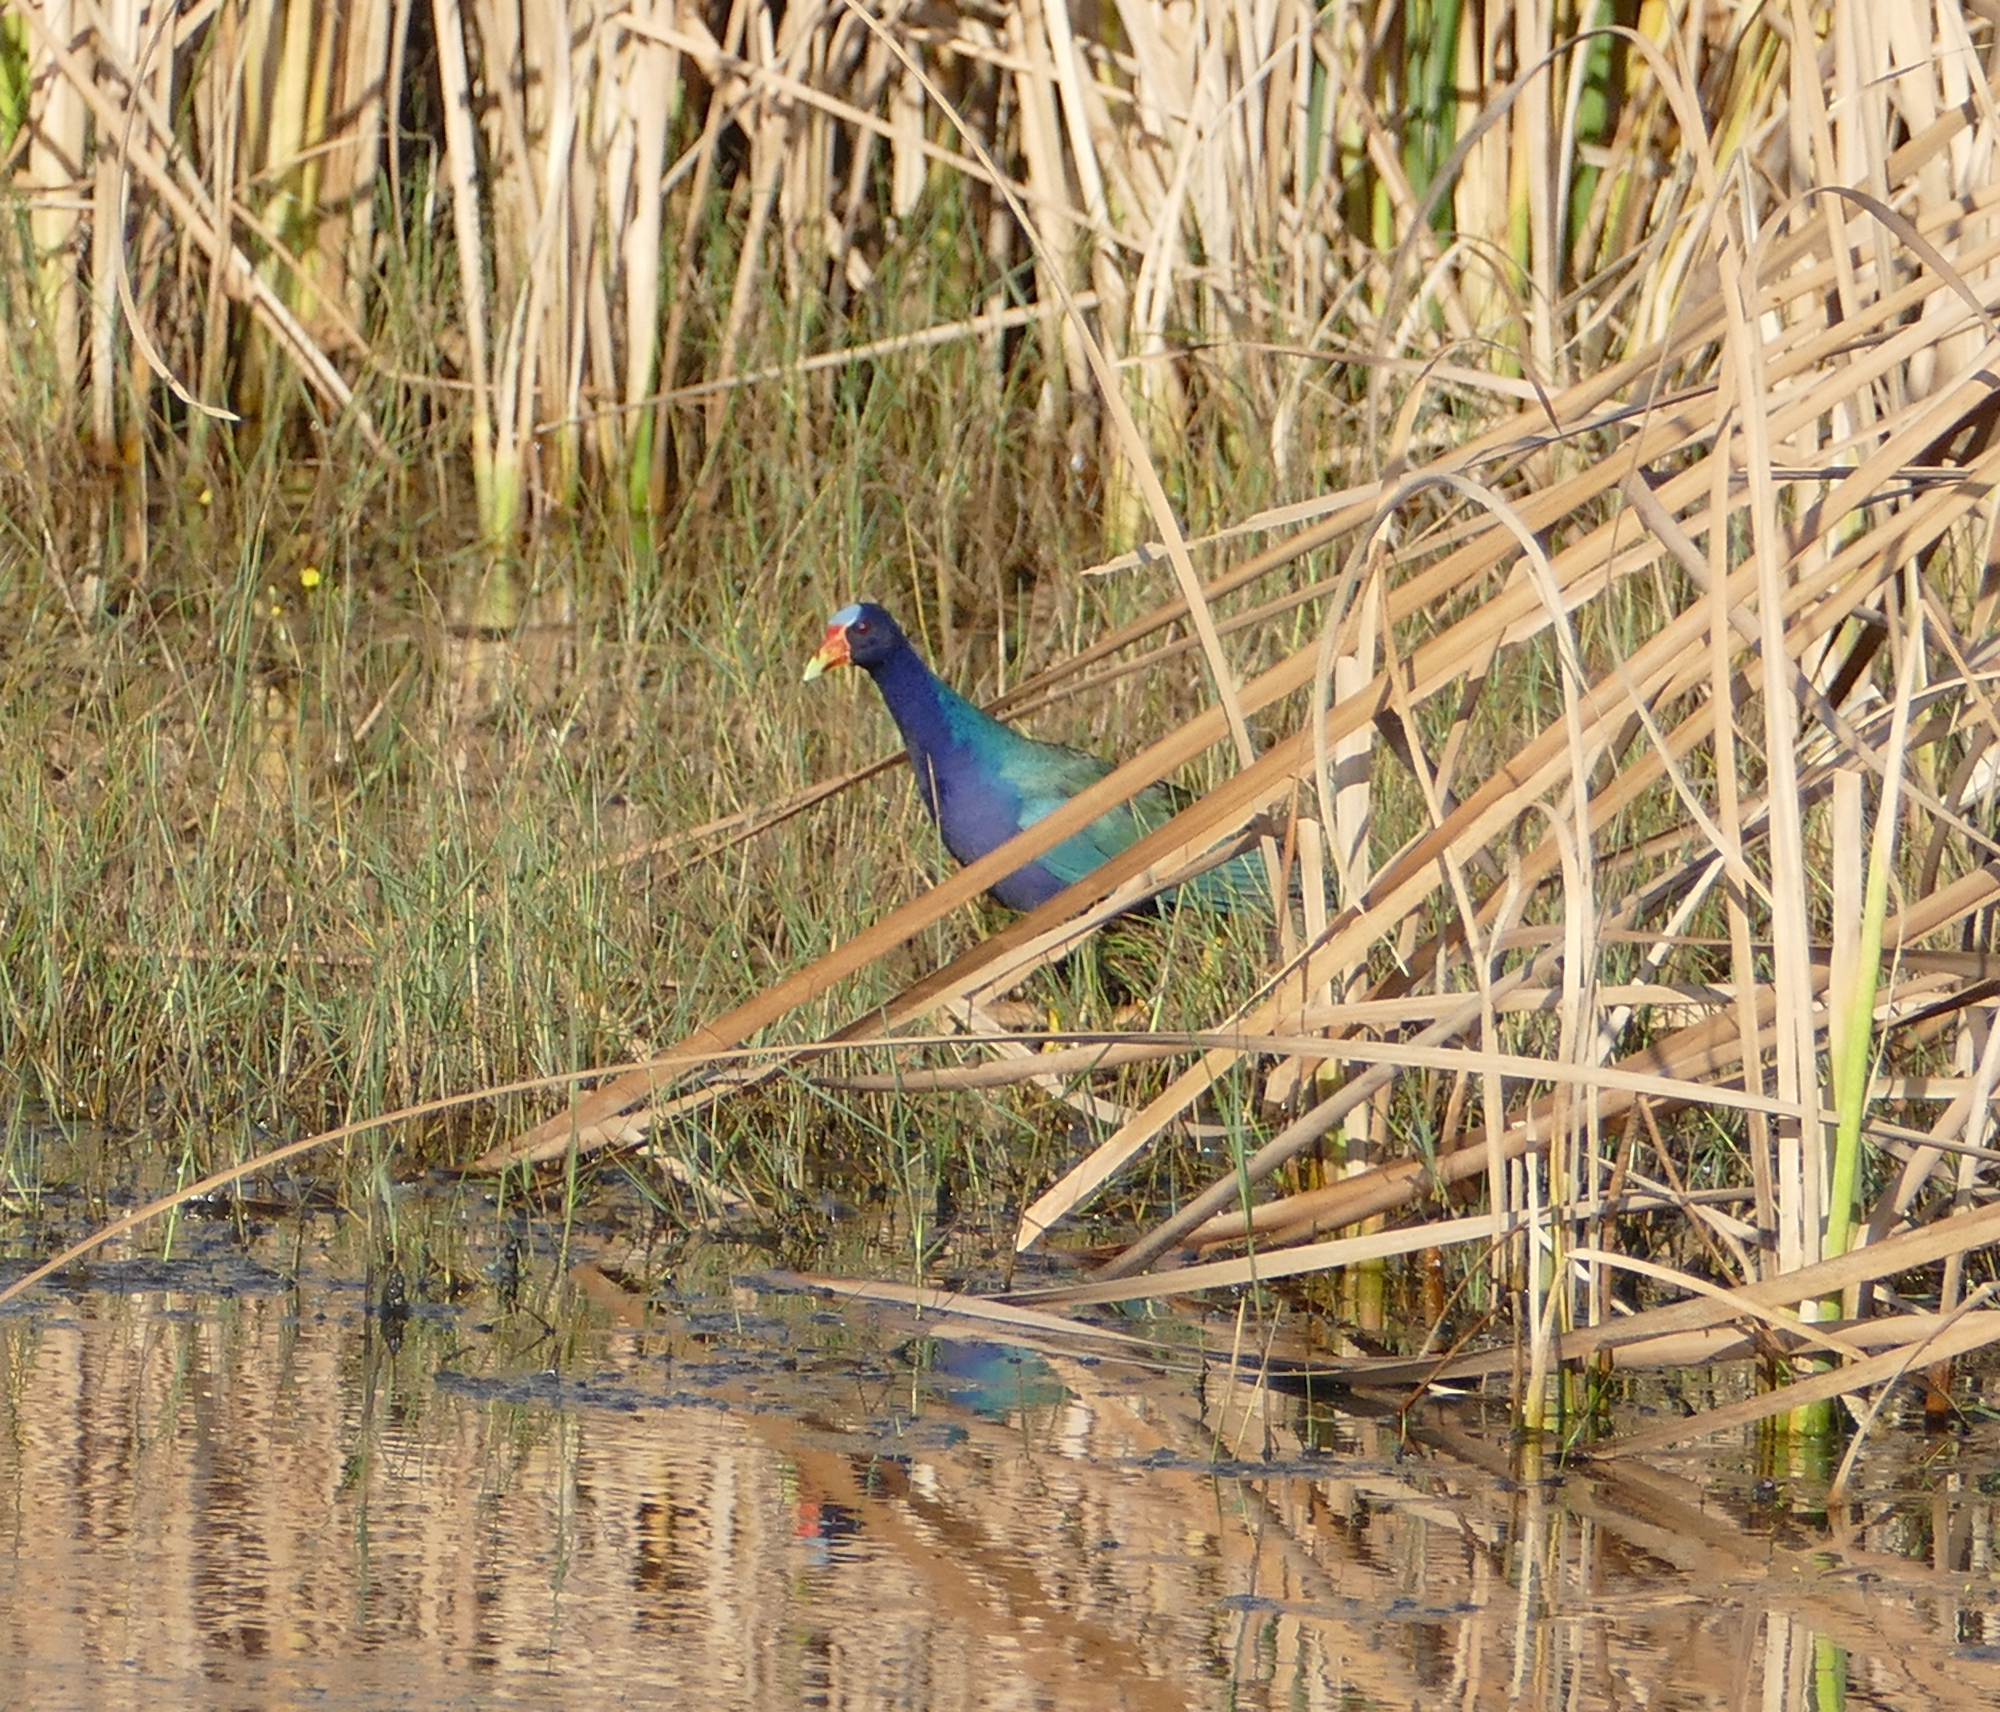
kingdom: Animalia
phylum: Chordata
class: Aves
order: Gruiformes
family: Rallidae
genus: Porphyrio
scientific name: Porphyrio martinica
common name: Purple gallinule
